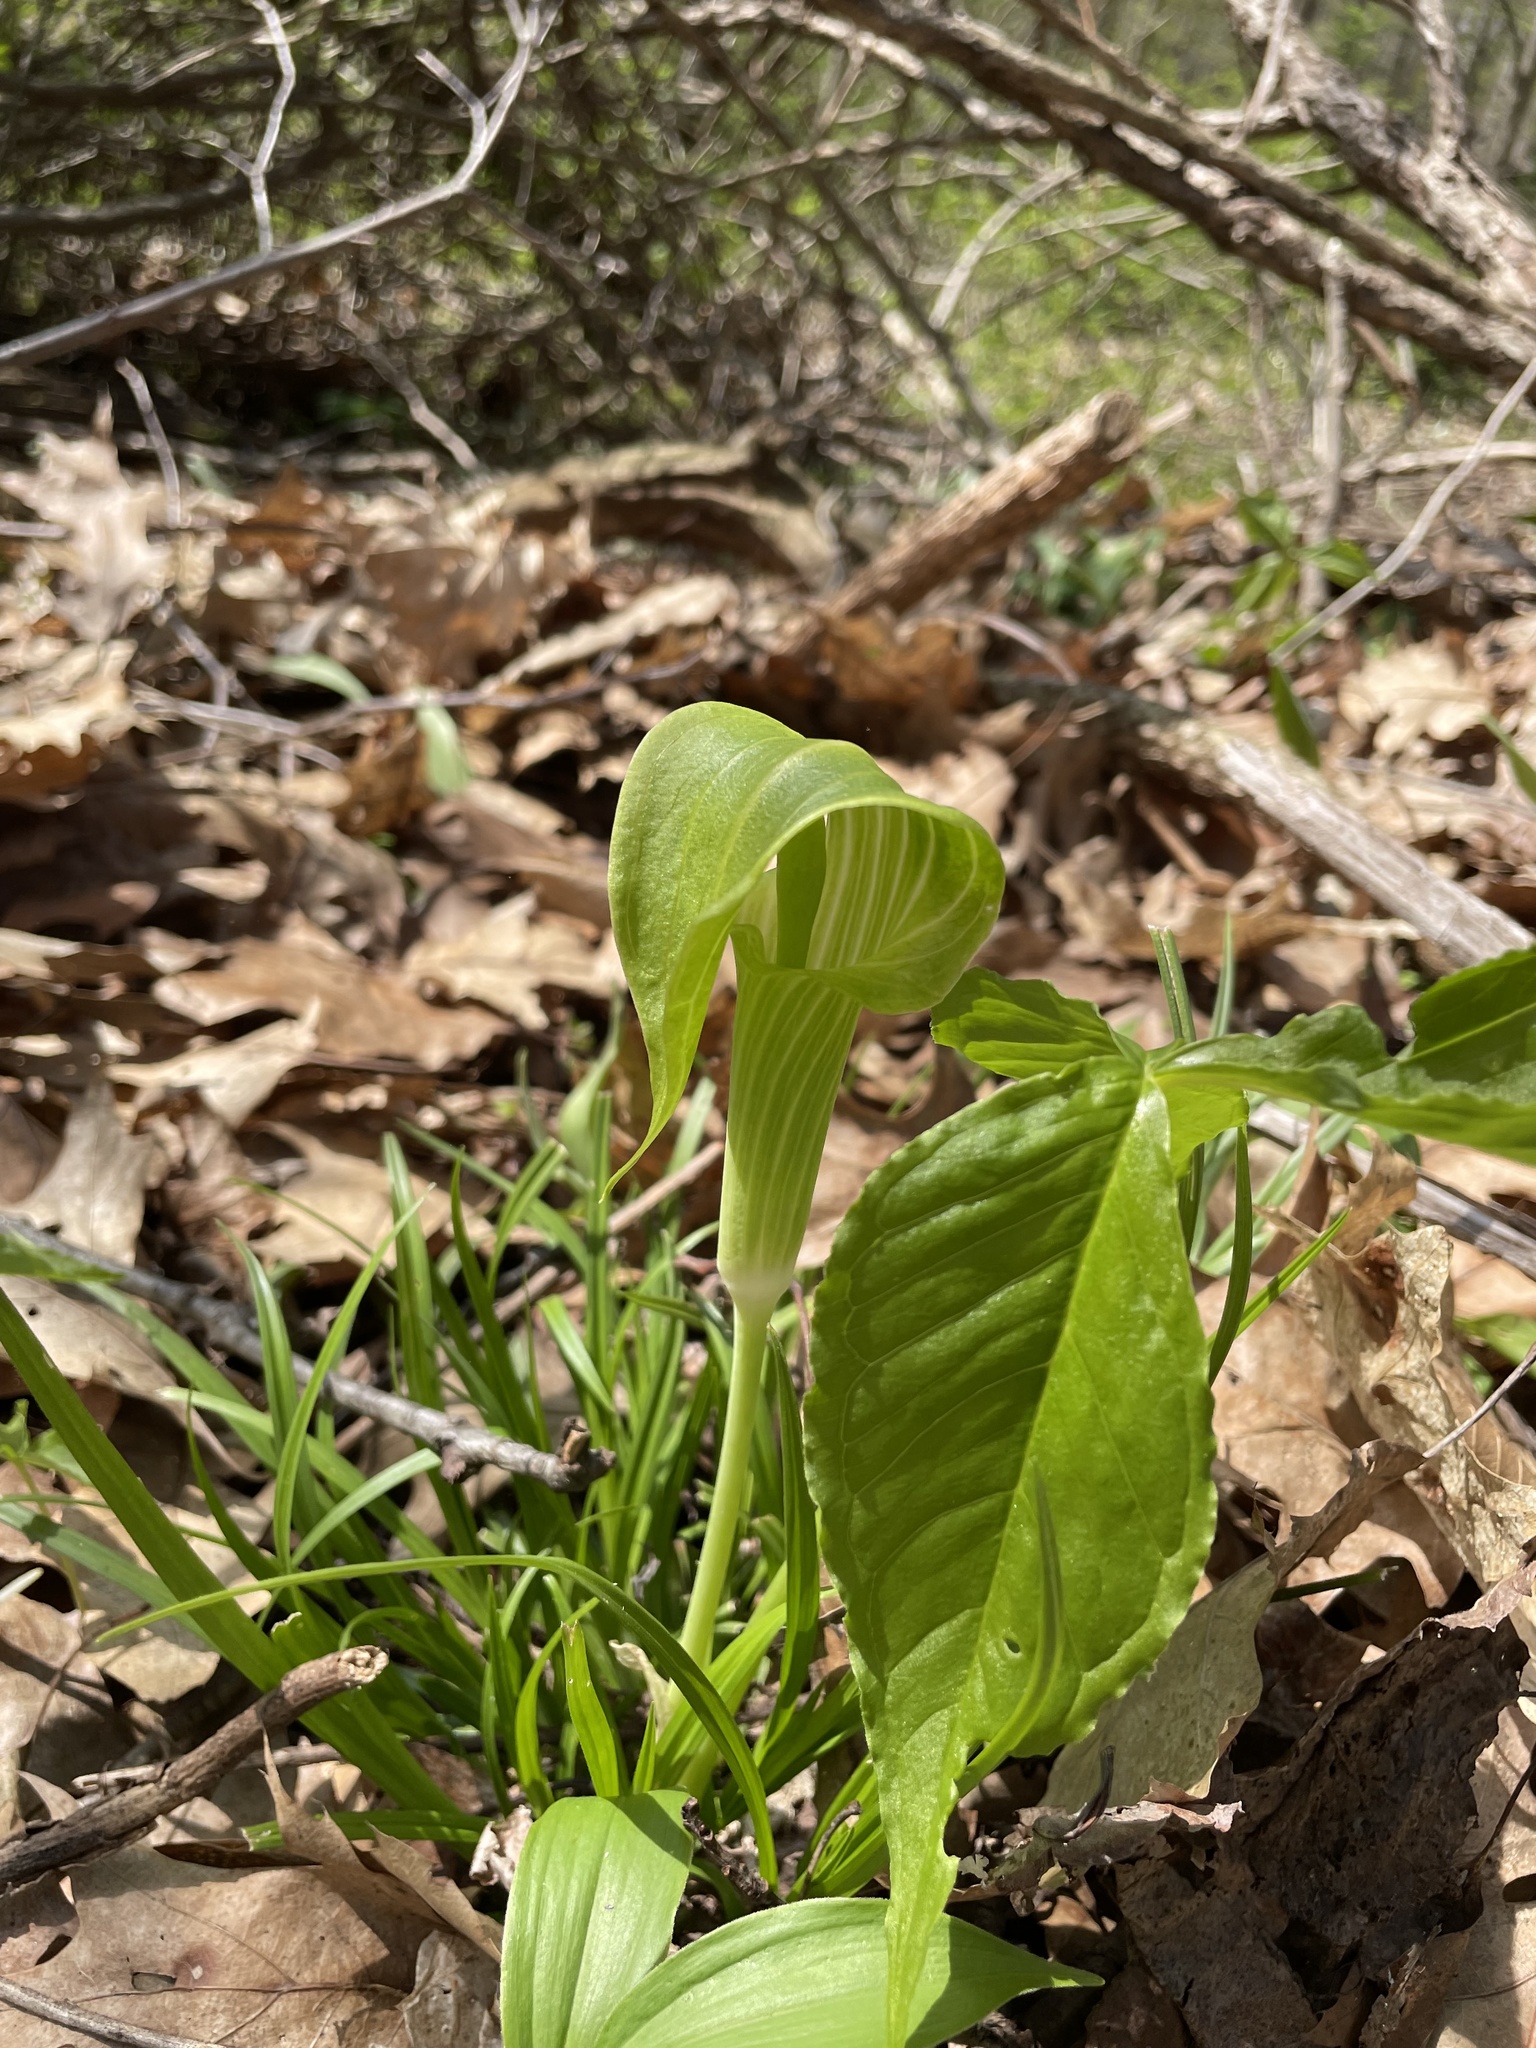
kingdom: Plantae
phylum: Tracheophyta
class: Liliopsida
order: Alismatales
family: Araceae
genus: Arisaema
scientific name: Arisaema triphyllum
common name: Jack-in-the-pulpit
